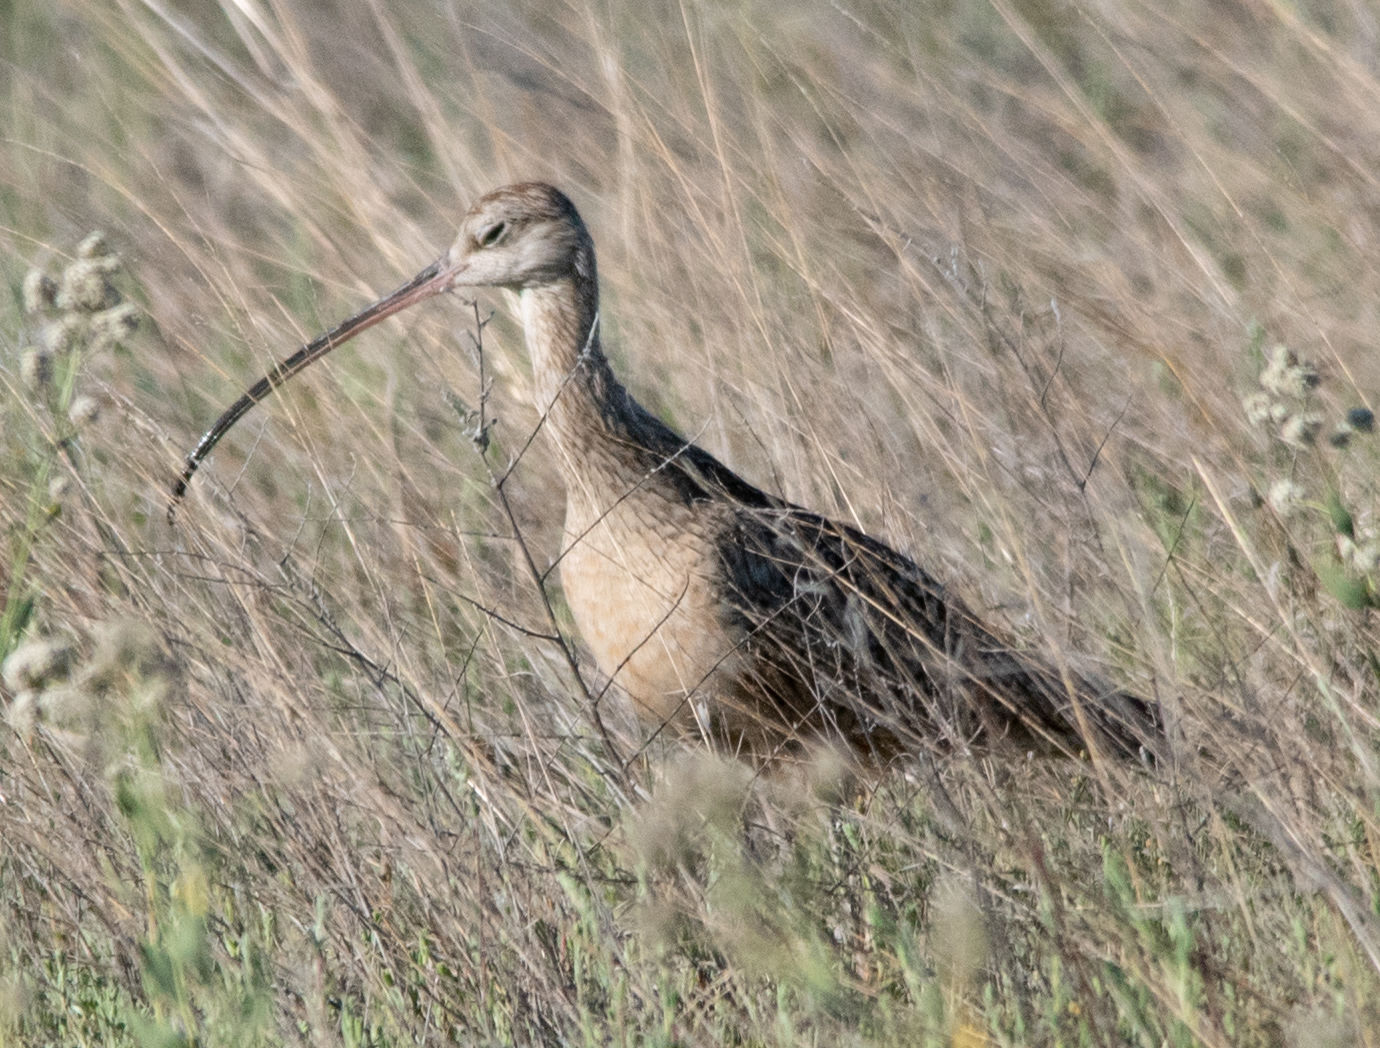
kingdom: Animalia
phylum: Chordata
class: Aves
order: Charadriiformes
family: Scolopacidae
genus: Numenius
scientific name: Numenius americanus
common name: Long-billed curlew
